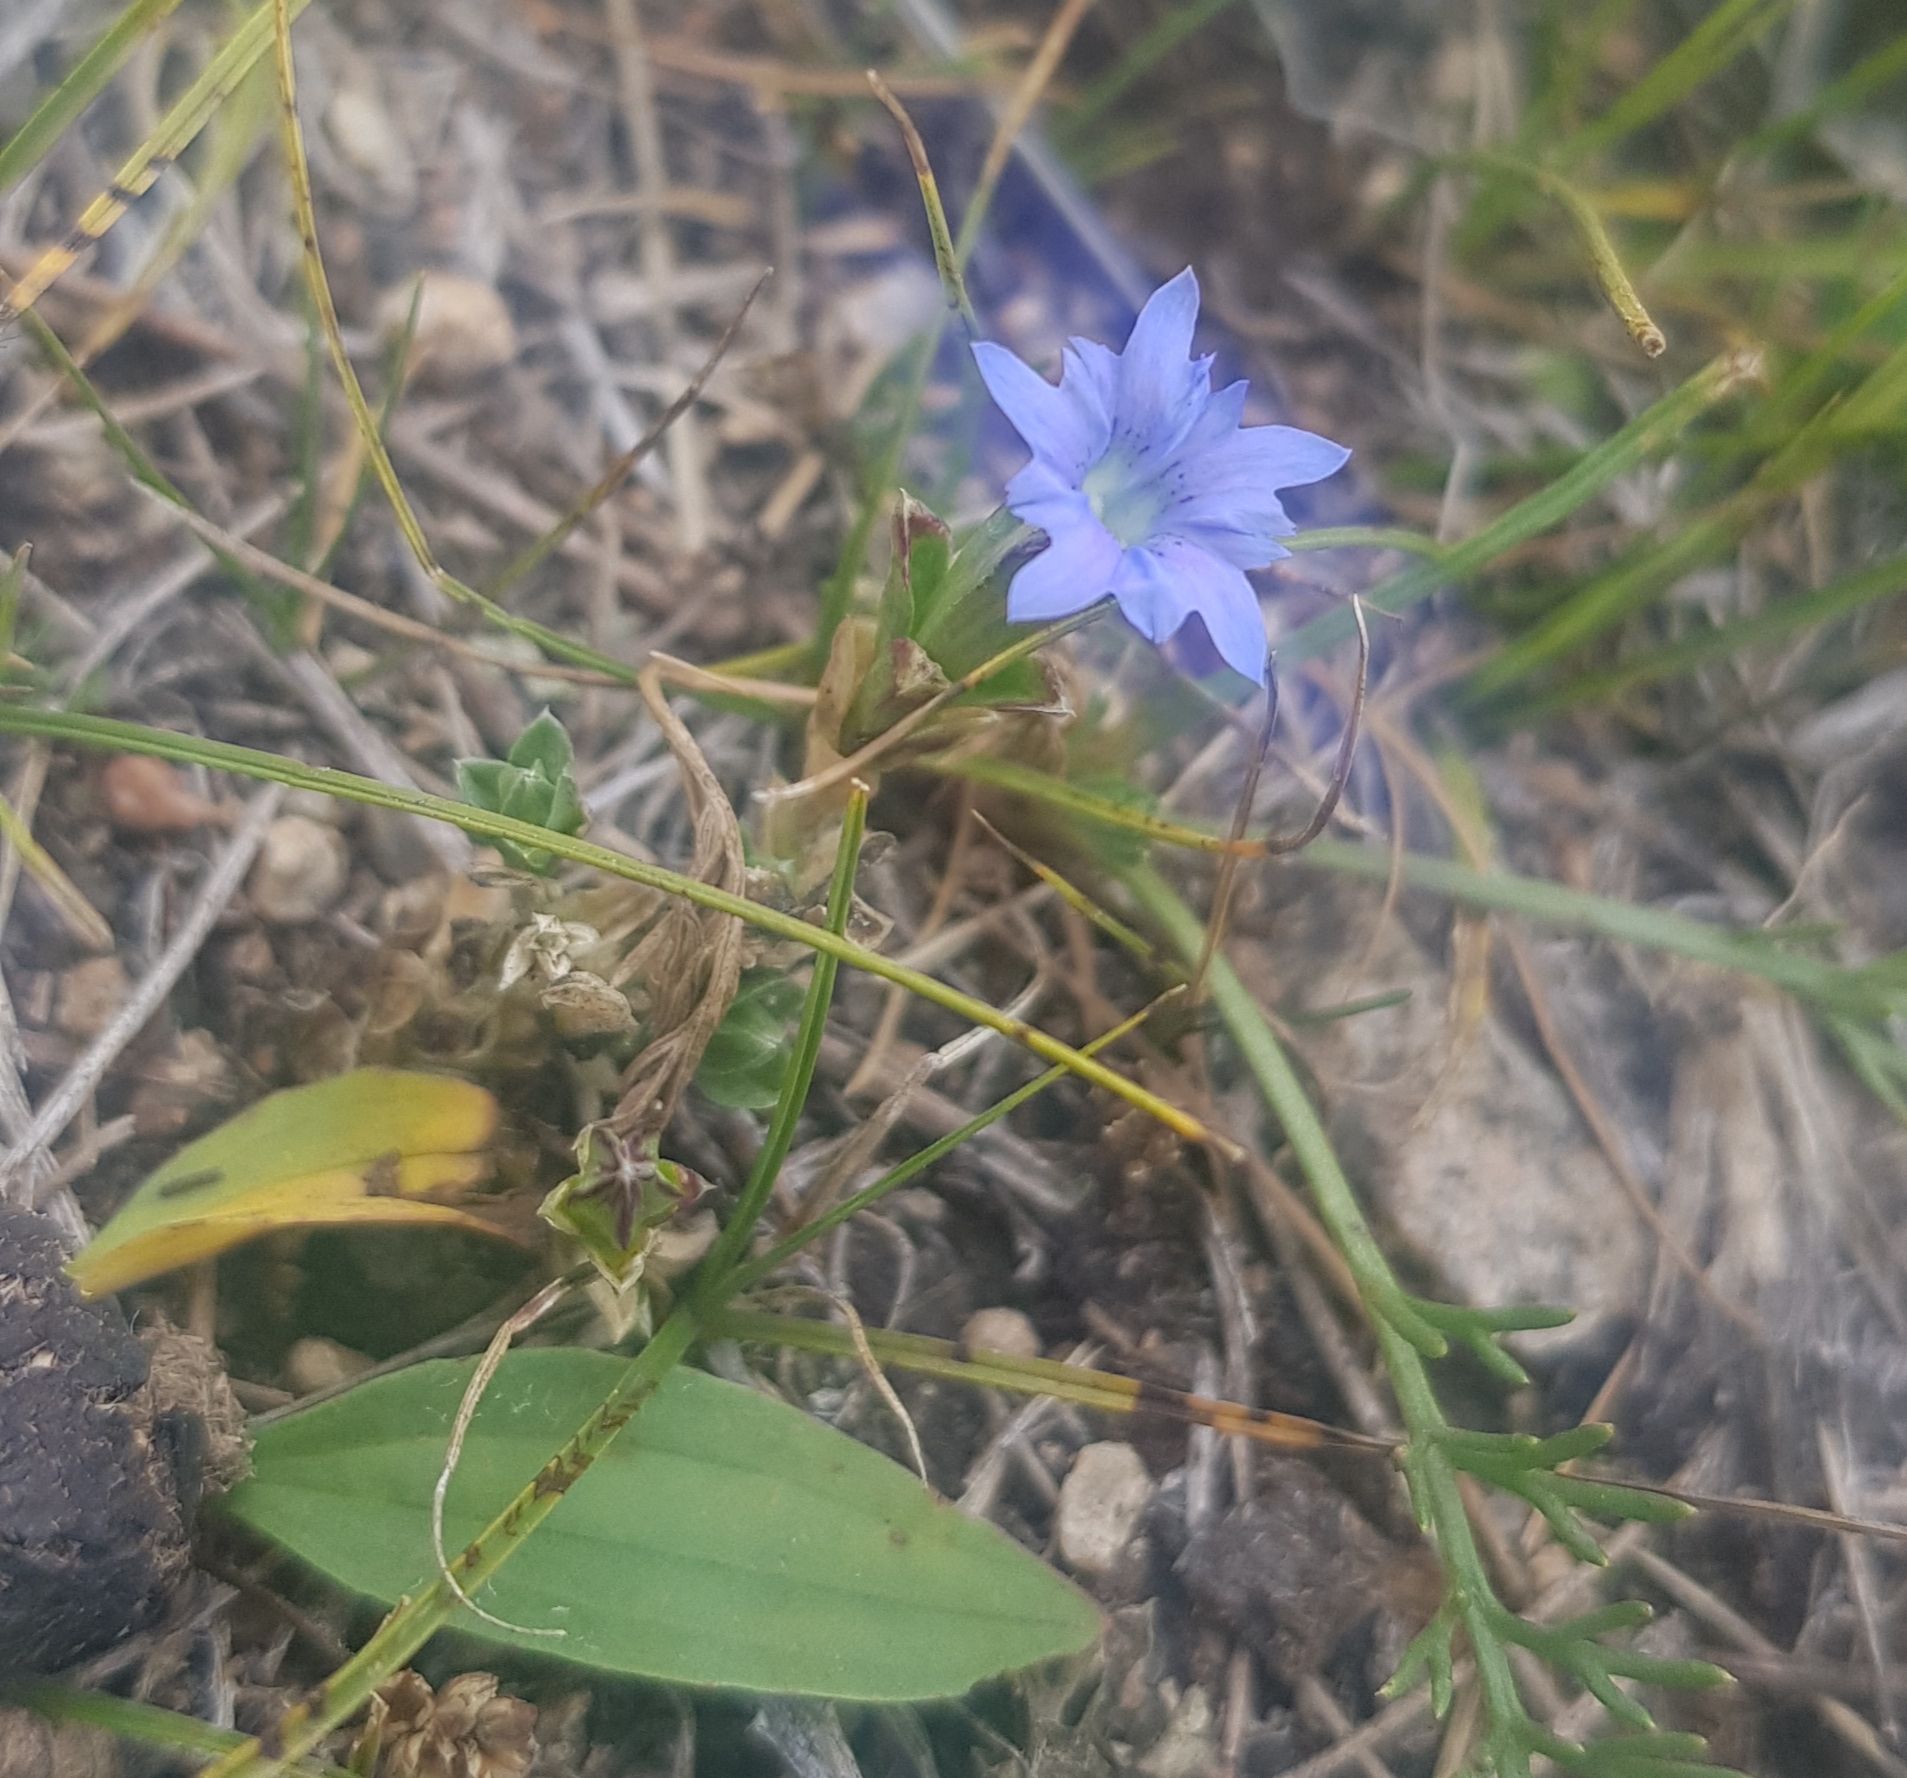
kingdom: Plantae
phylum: Tracheophyta
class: Magnoliopsida
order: Gentianales
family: Gentianaceae
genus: Gentiana
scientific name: Gentiana squarrosa
